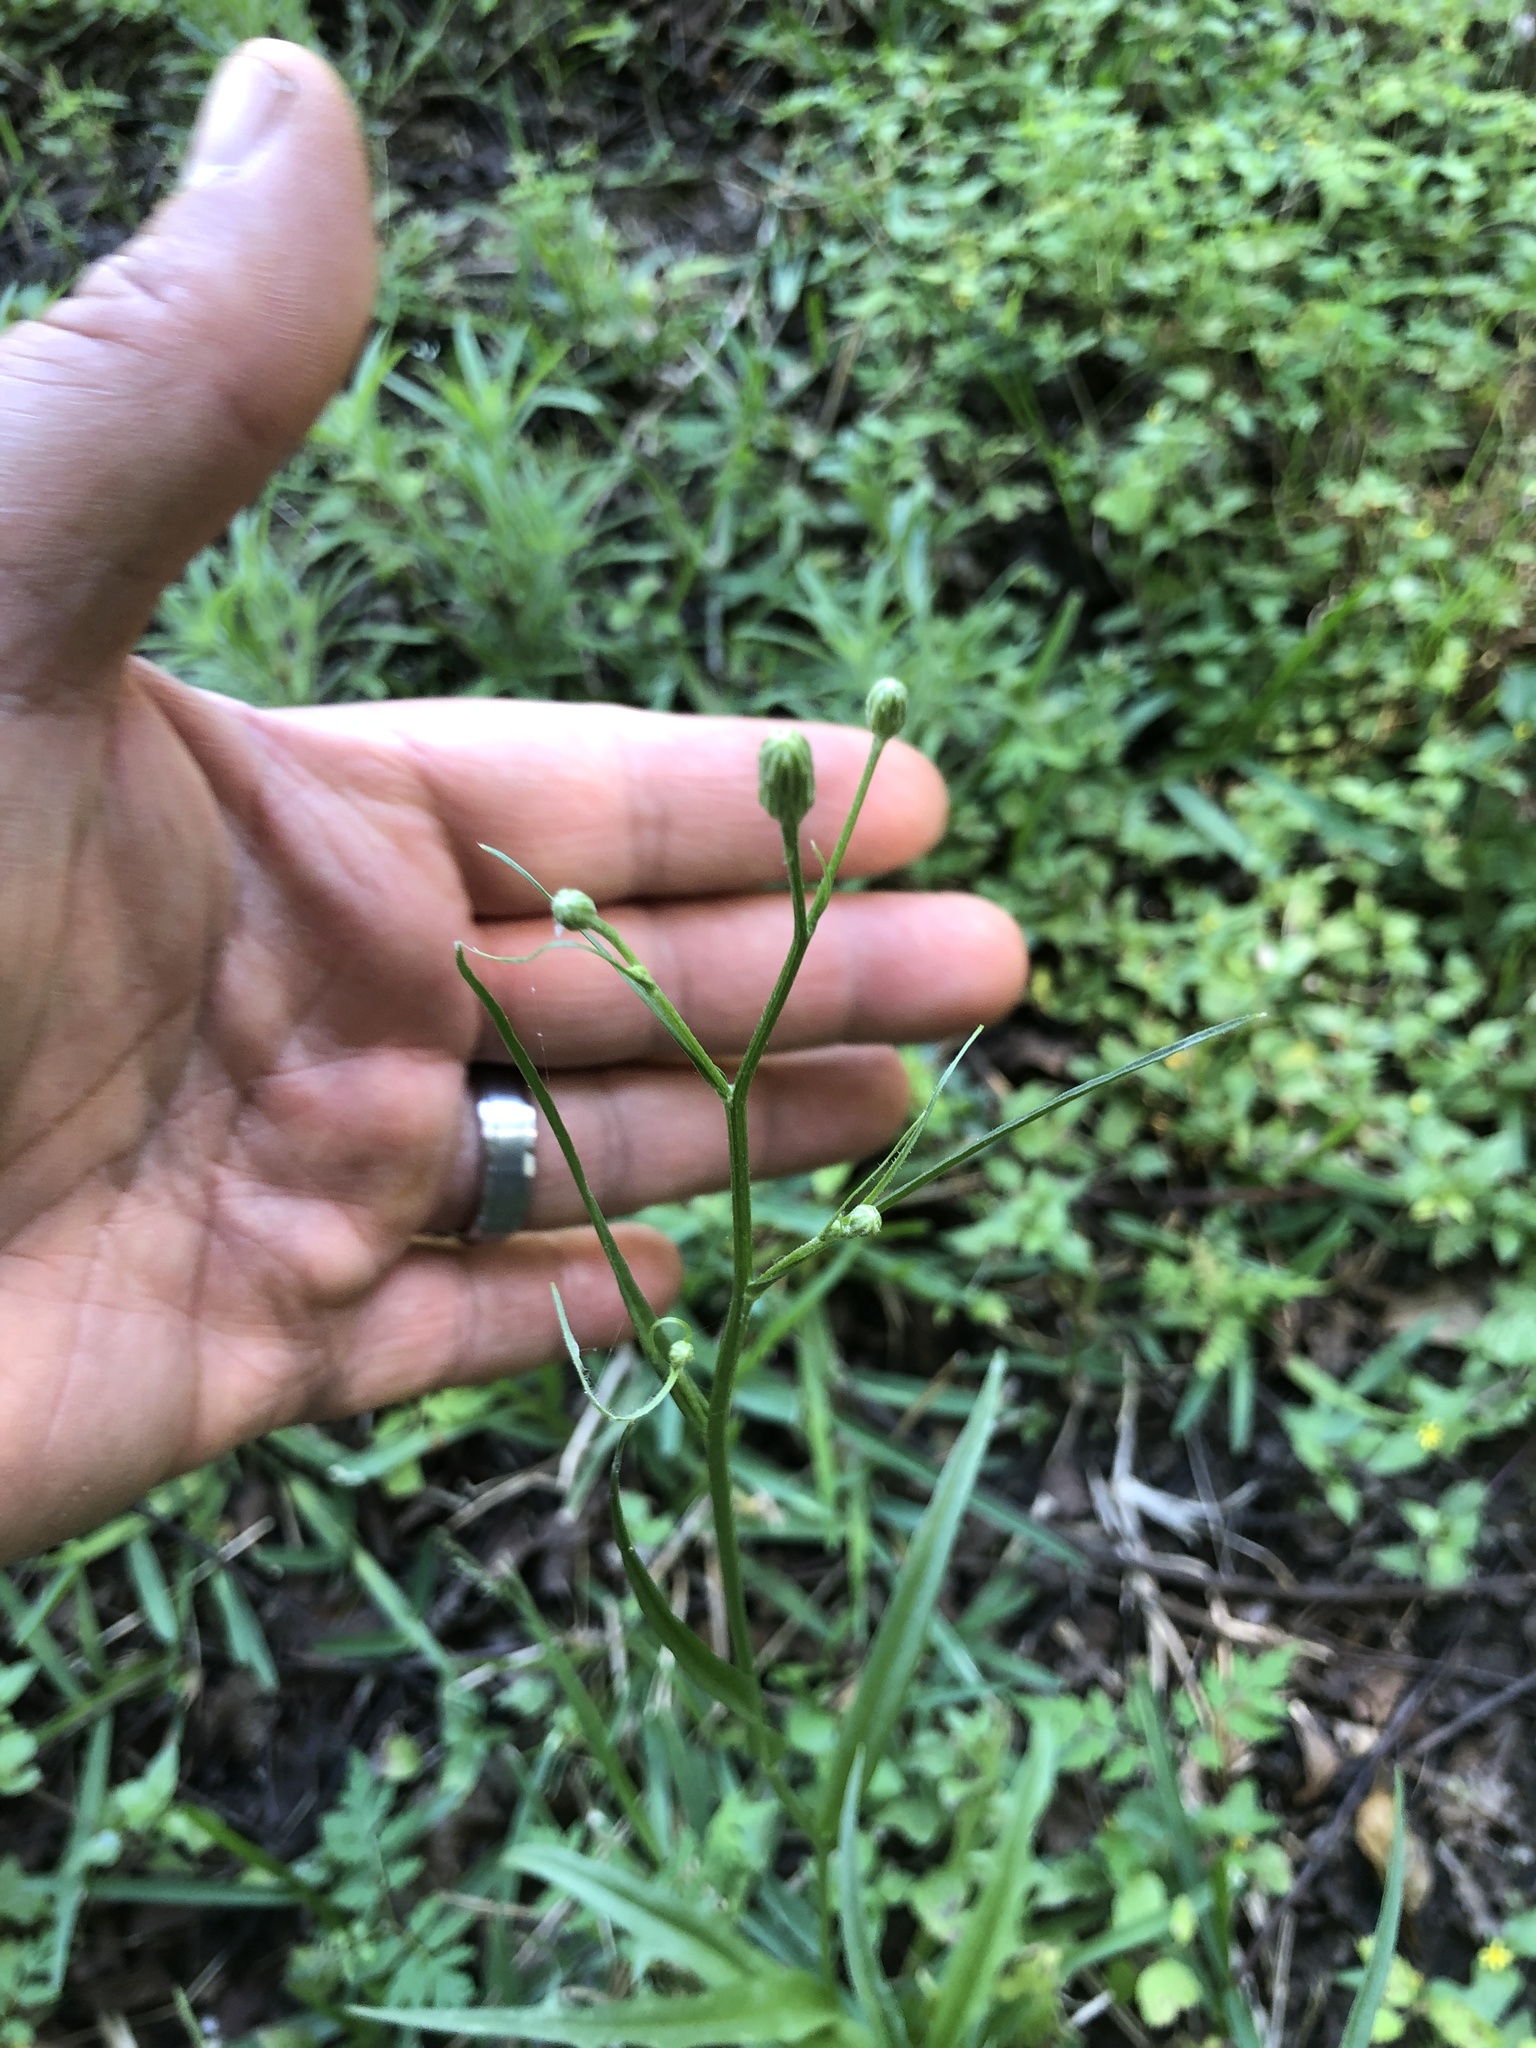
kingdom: Plantae
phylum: Tracheophyta
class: Magnoliopsida
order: Asterales
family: Asteraceae
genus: Hypochaeris
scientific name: Hypochaeris albiflora
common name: White flatweed
